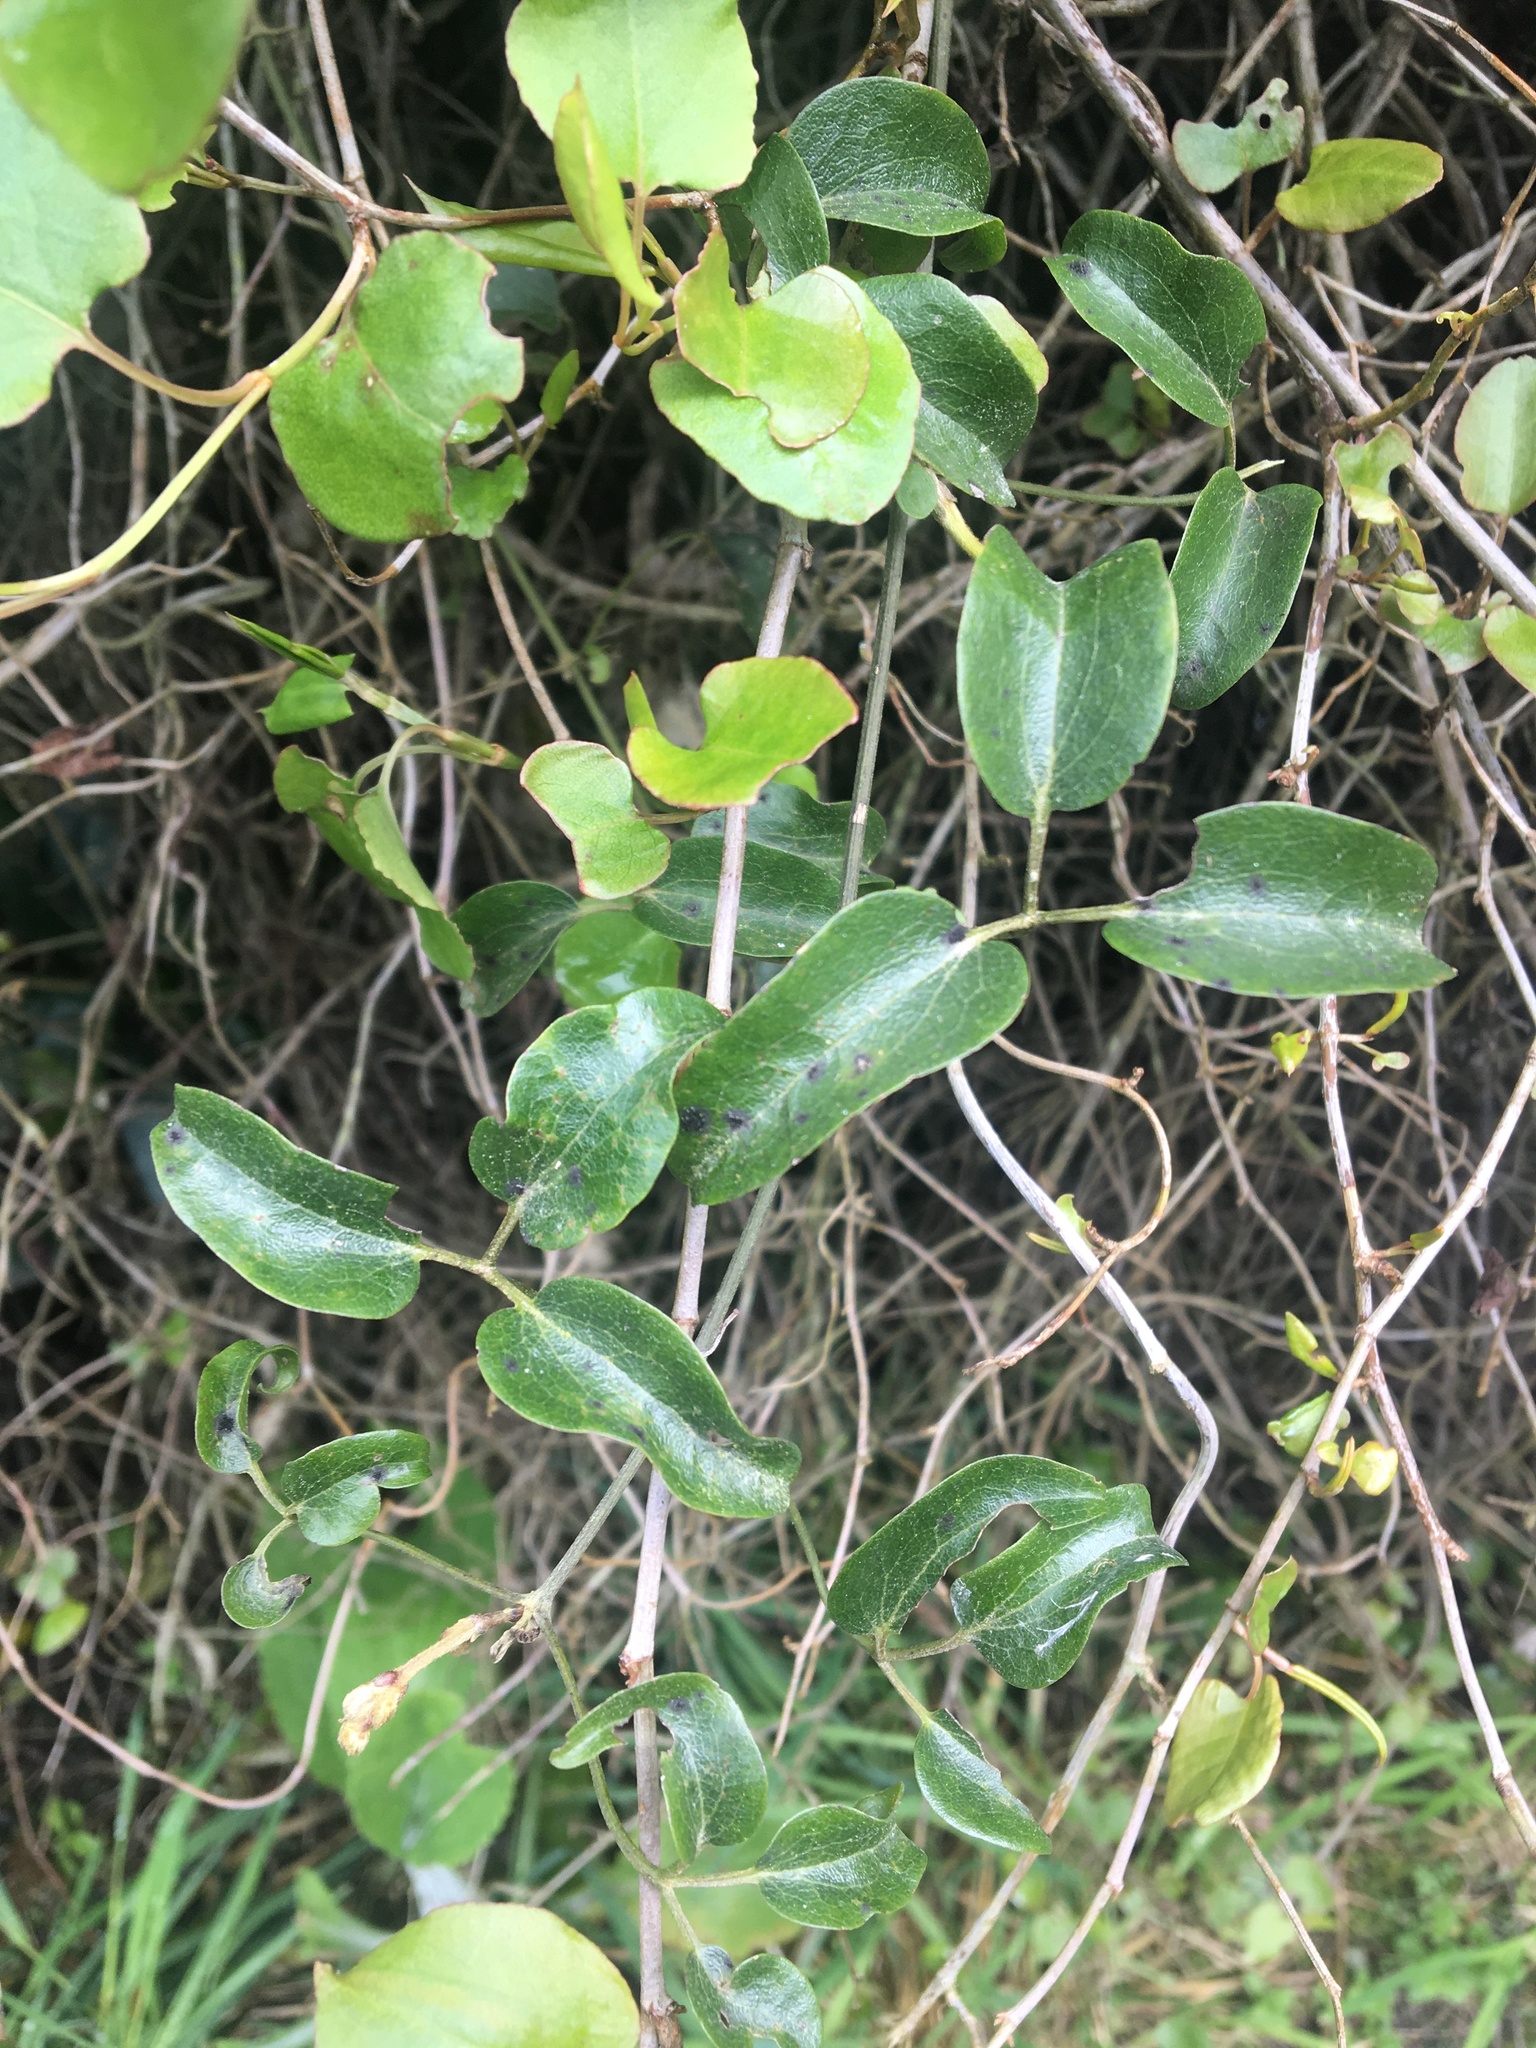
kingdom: Plantae
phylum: Tracheophyta
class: Magnoliopsida
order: Ranunculales
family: Ranunculaceae
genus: Clematis
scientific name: Clematis foetida
